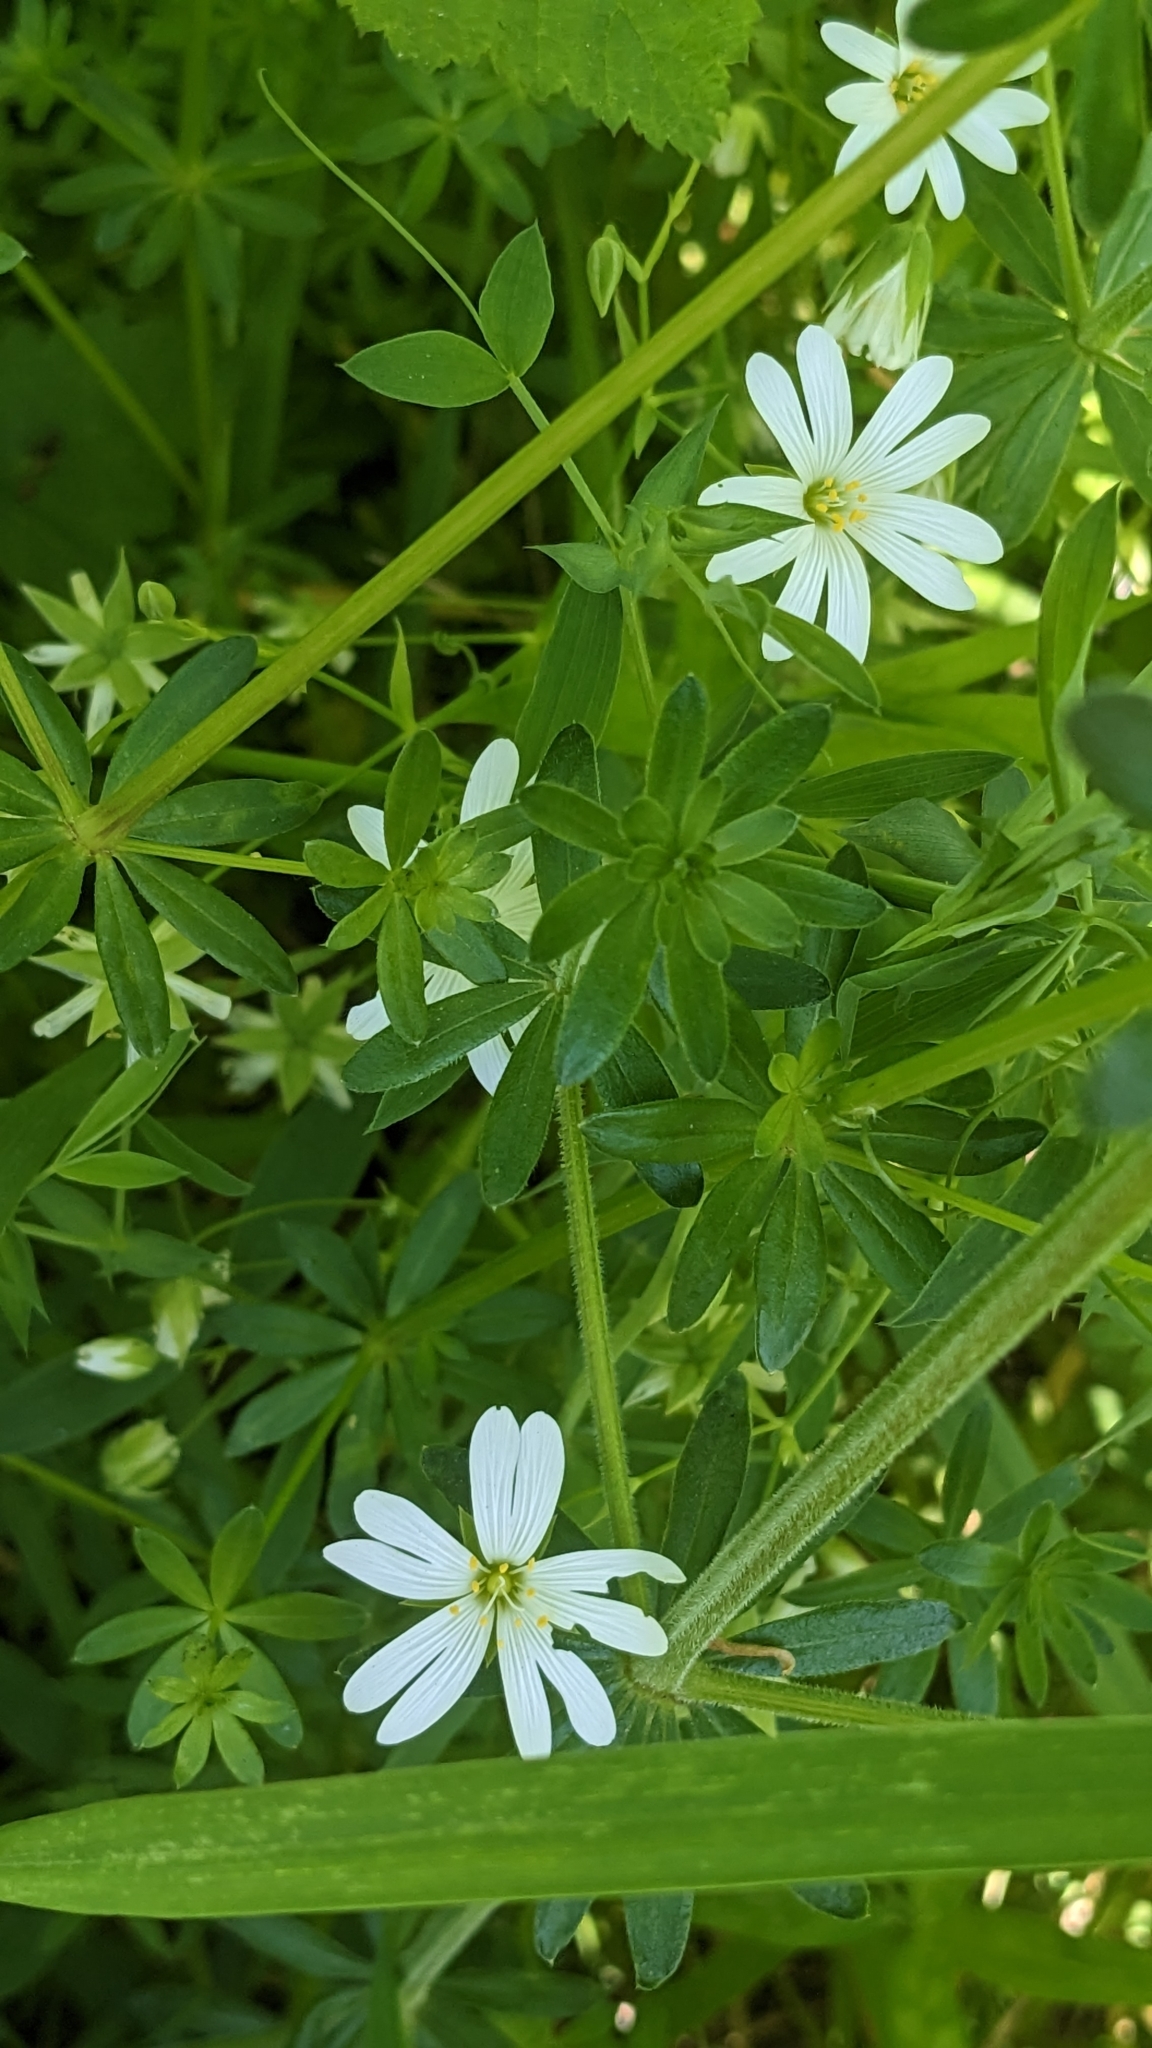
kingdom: Plantae
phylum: Tracheophyta
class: Magnoliopsida
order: Caryophyllales
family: Caryophyllaceae
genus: Rabelera
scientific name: Rabelera holostea
